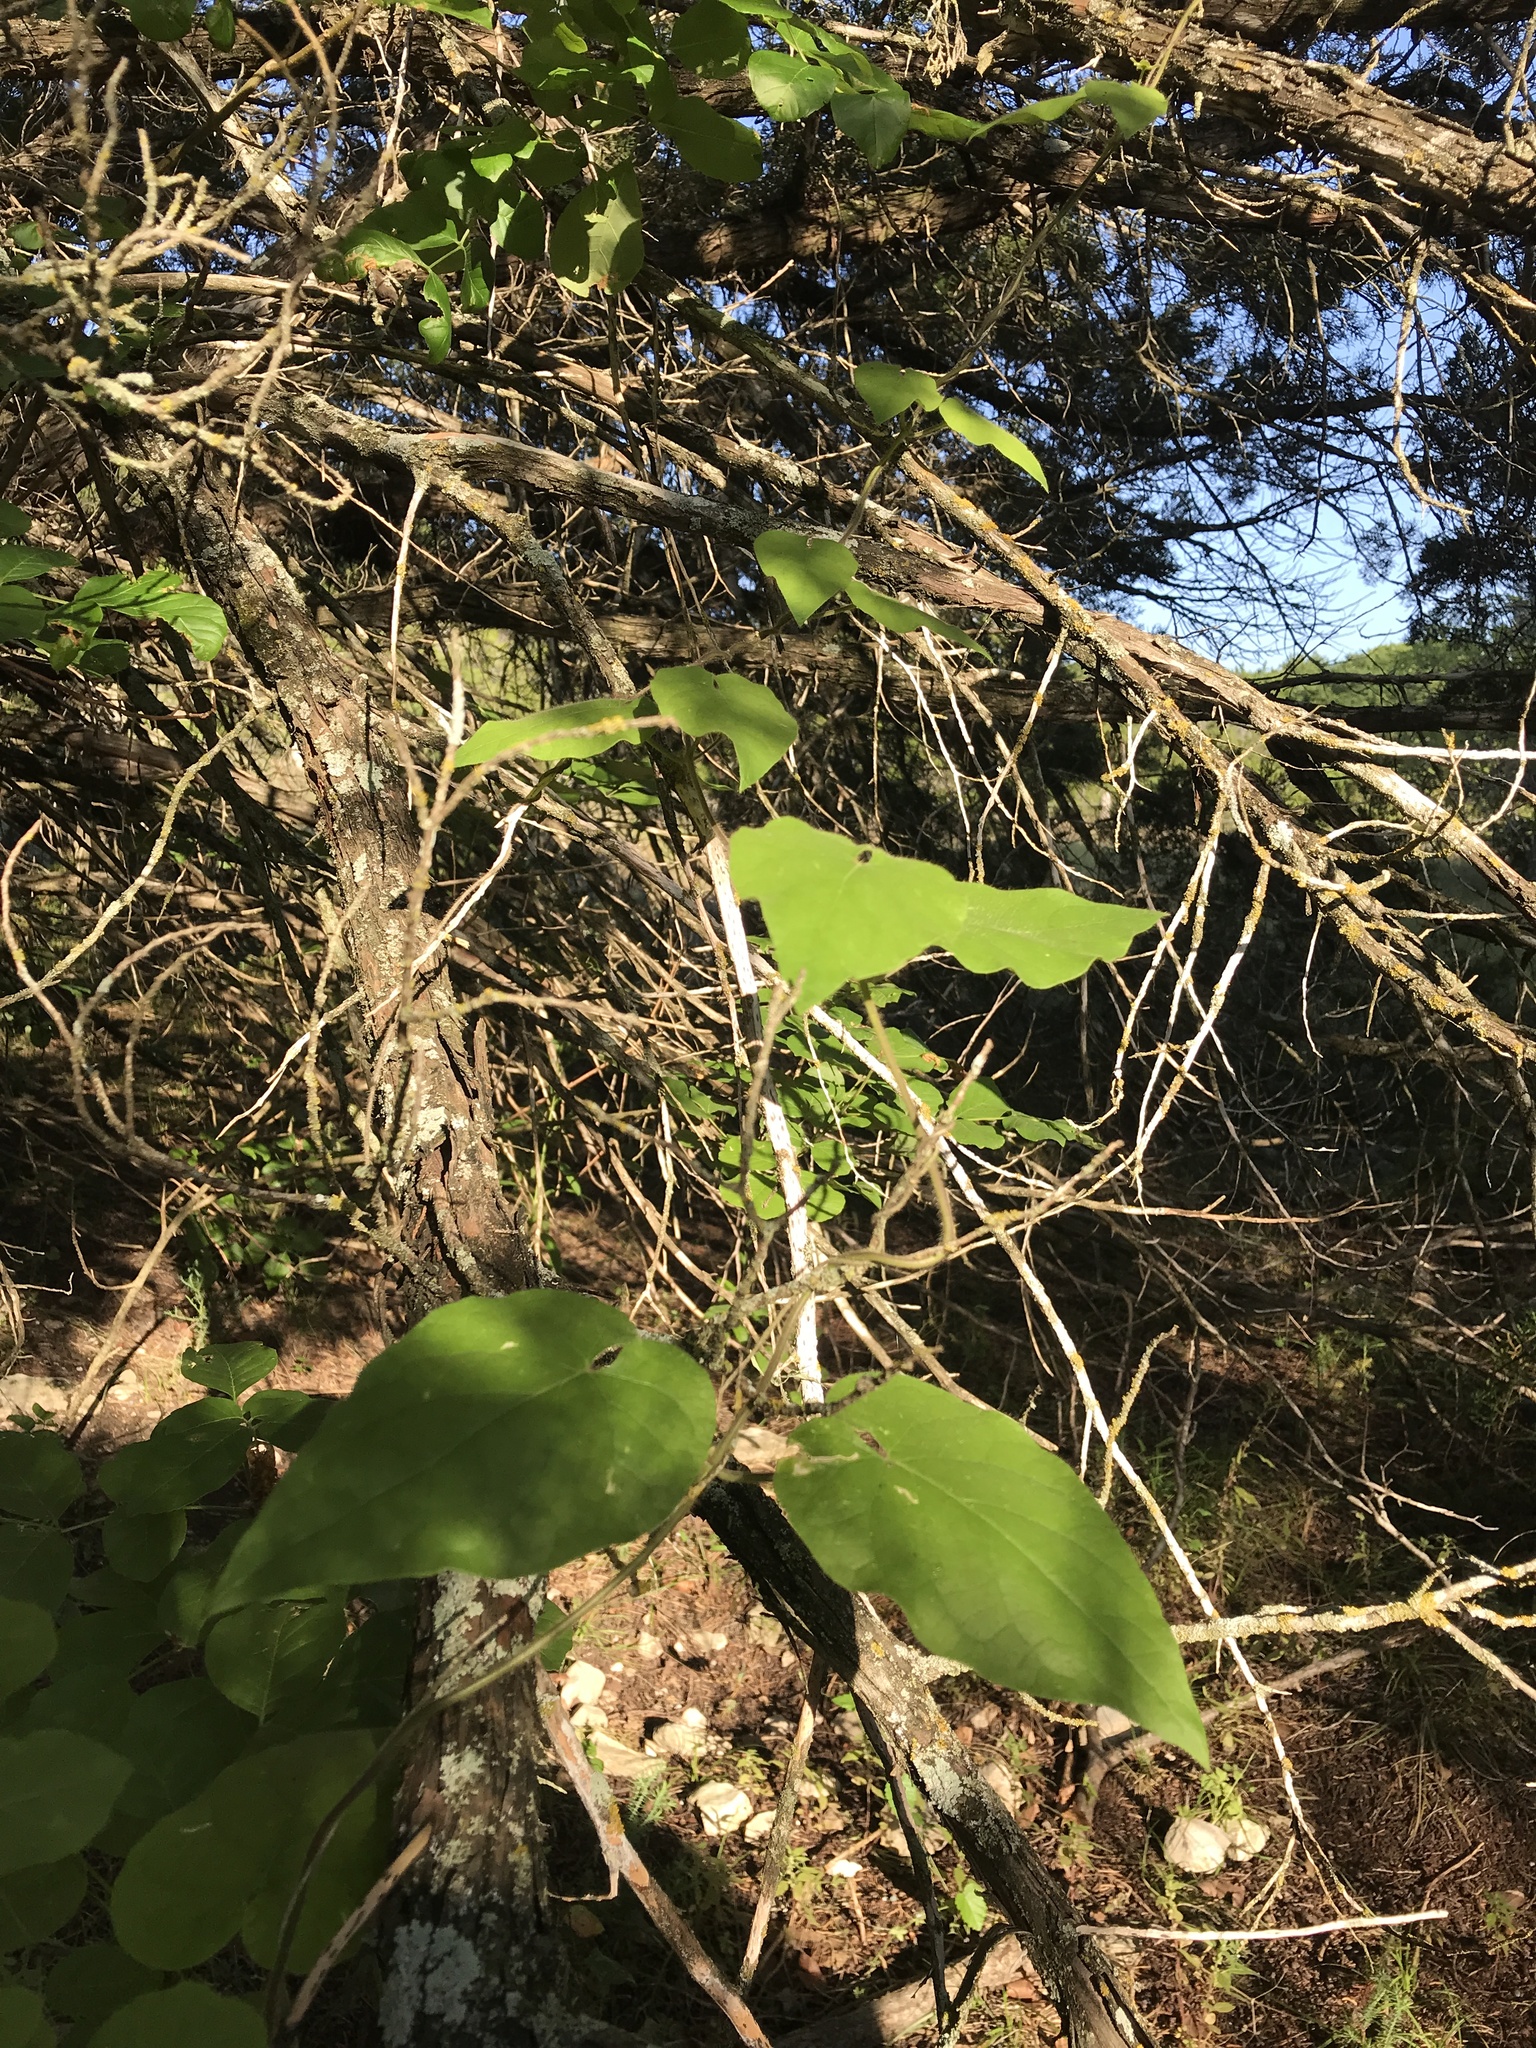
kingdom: Plantae
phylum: Tracheophyta
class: Magnoliopsida
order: Gentianales
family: Apocynaceae
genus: Dictyanthus
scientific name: Dictyanthus reticulatus
